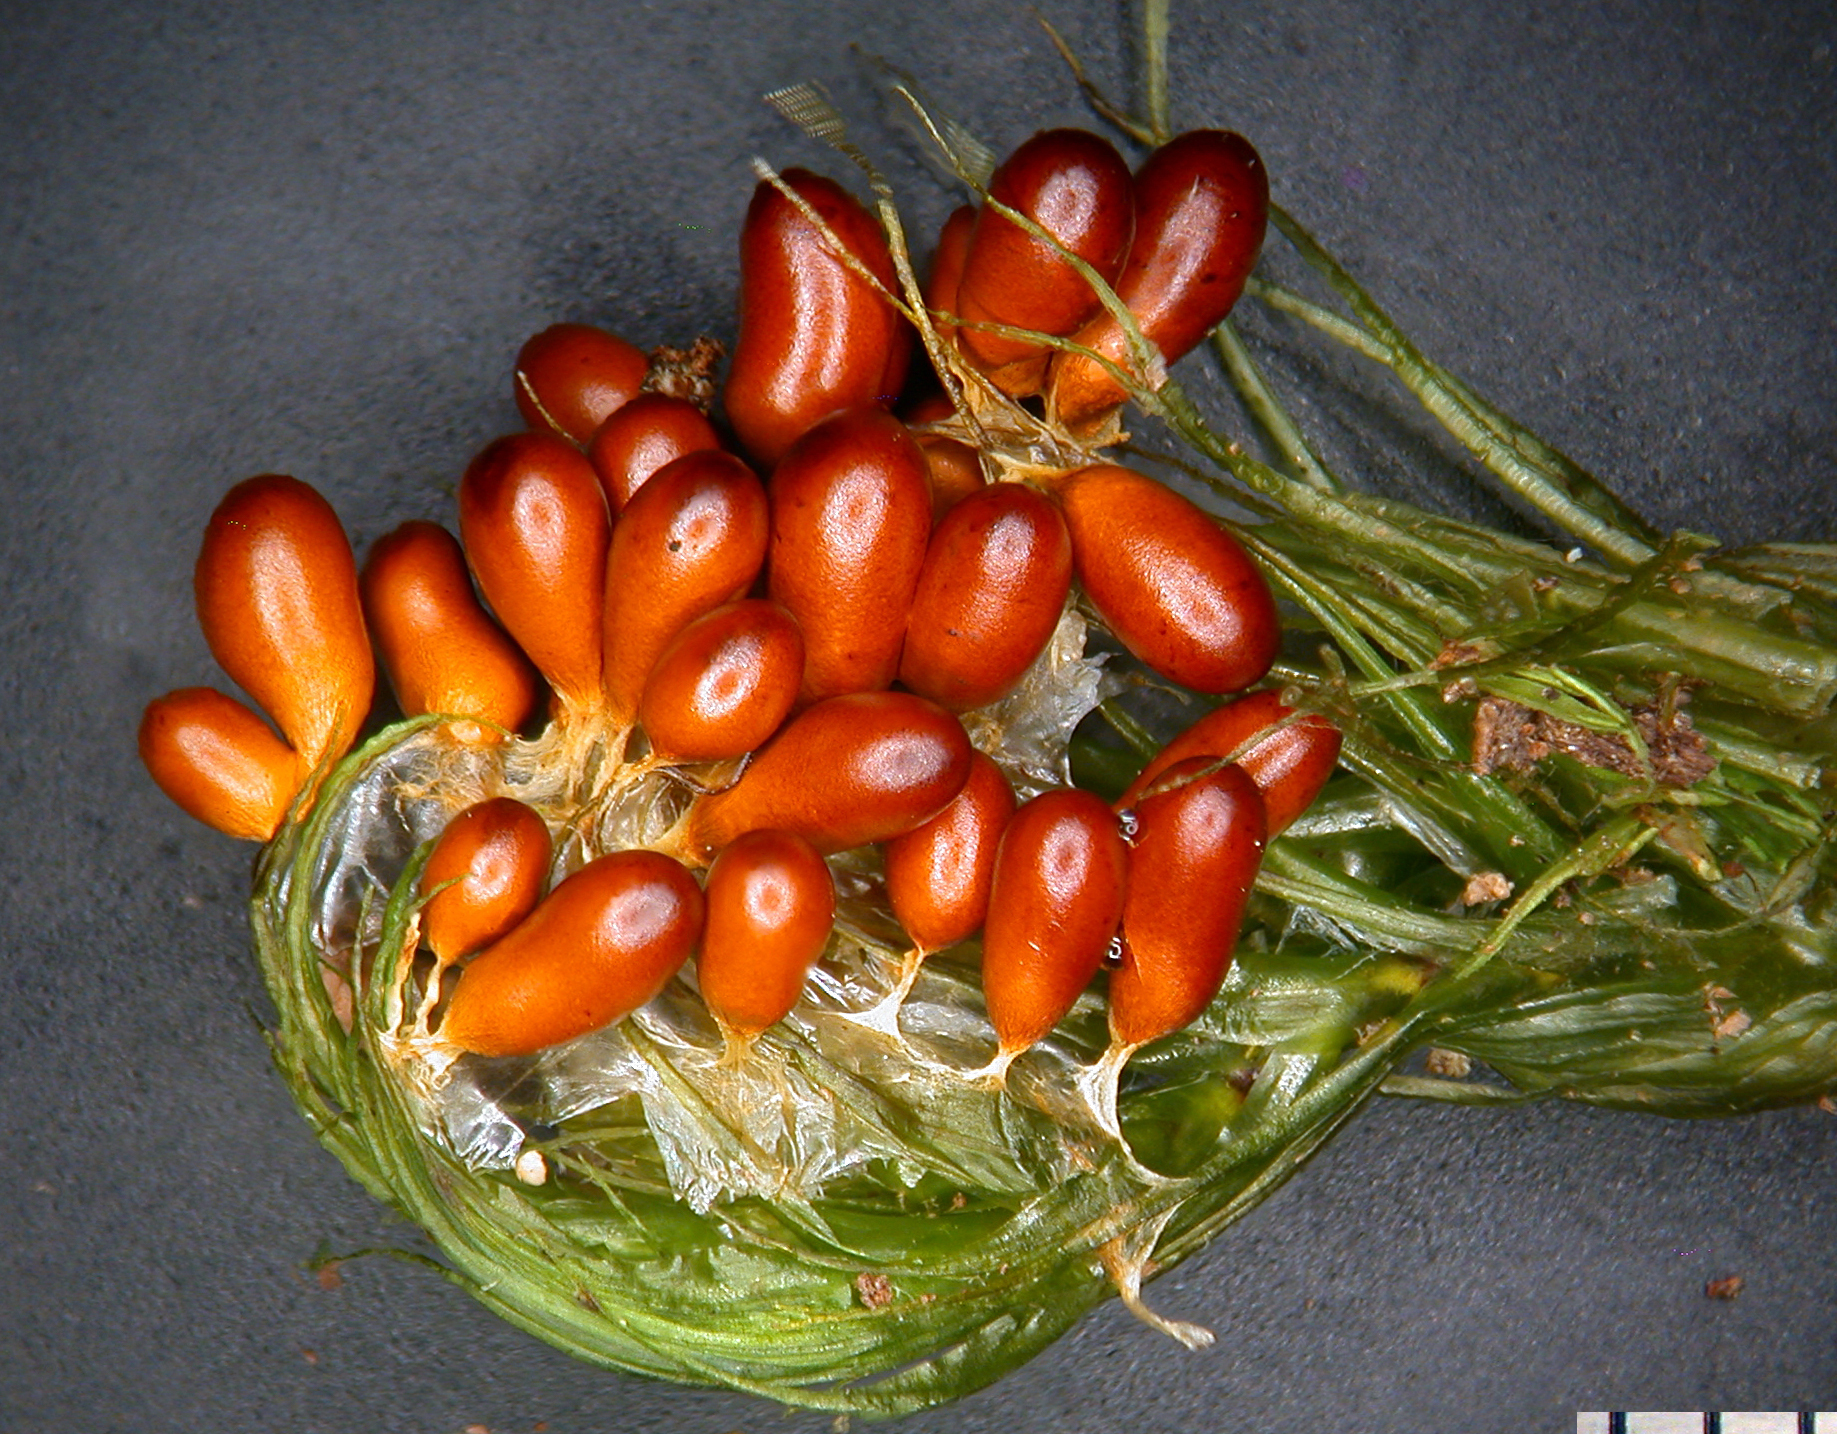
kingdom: Protozoa
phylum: Mycetozoa
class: Myxomycetes
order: Physarales
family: Physaraceae
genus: Leocarpus
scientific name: Leocarpus fragilis
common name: Insect-egg slime
